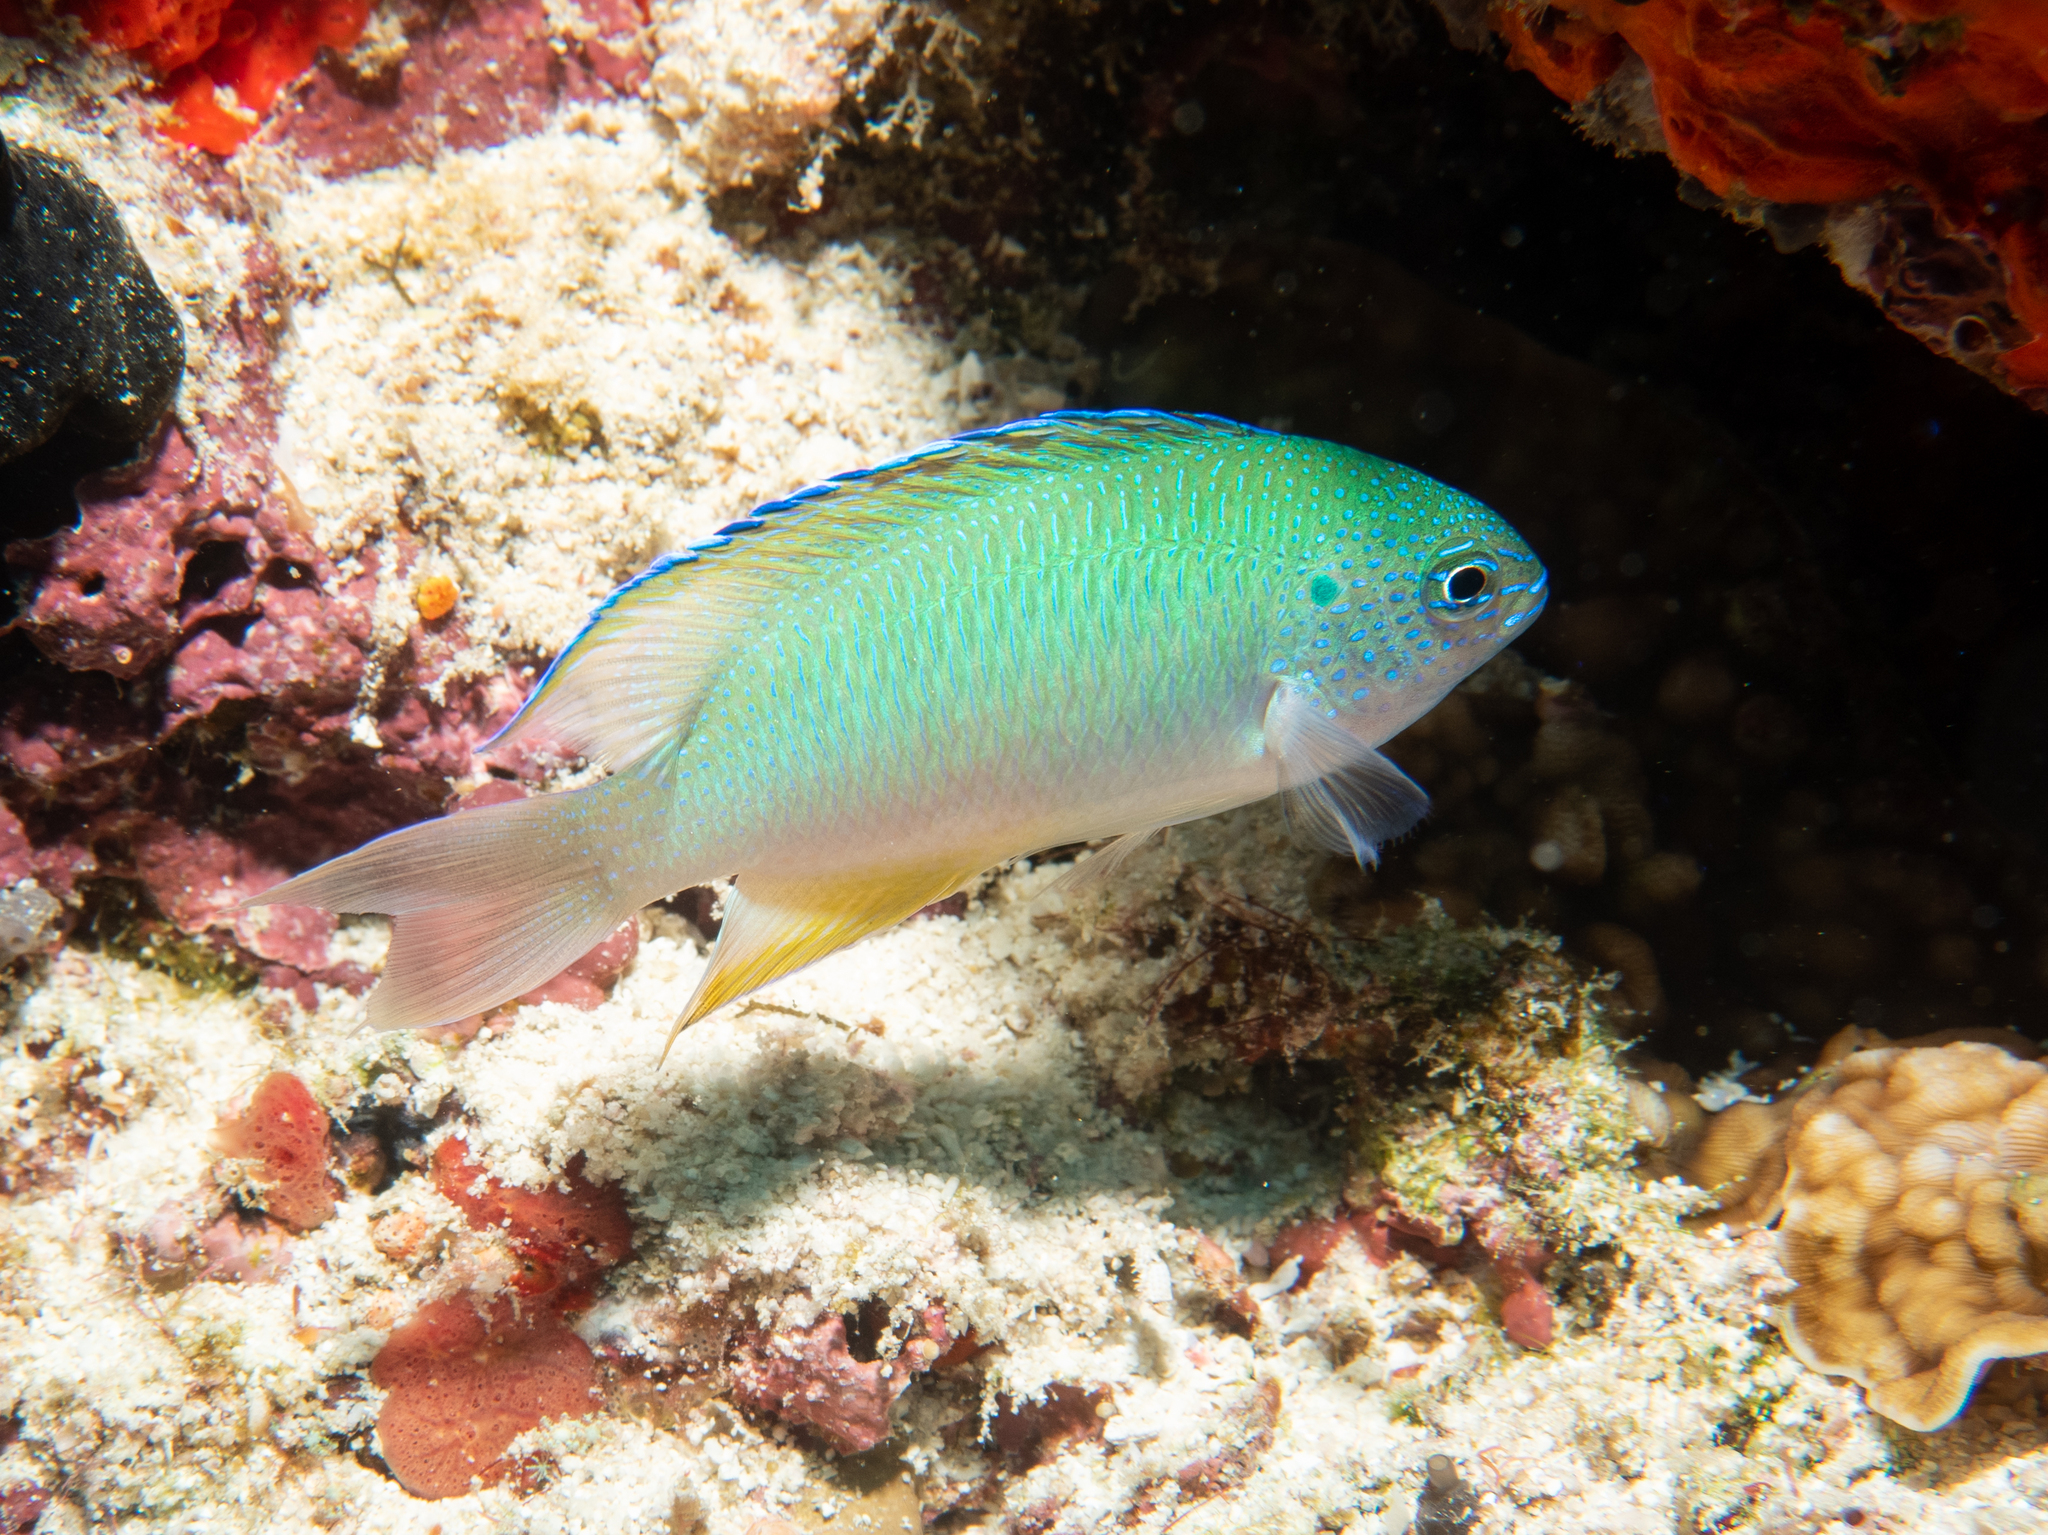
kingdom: Animalia
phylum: Chordata
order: Perciformes
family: Pomacentridae
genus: Pomacentrus
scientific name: Pomacentrus pavo
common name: Sapphire damsel
